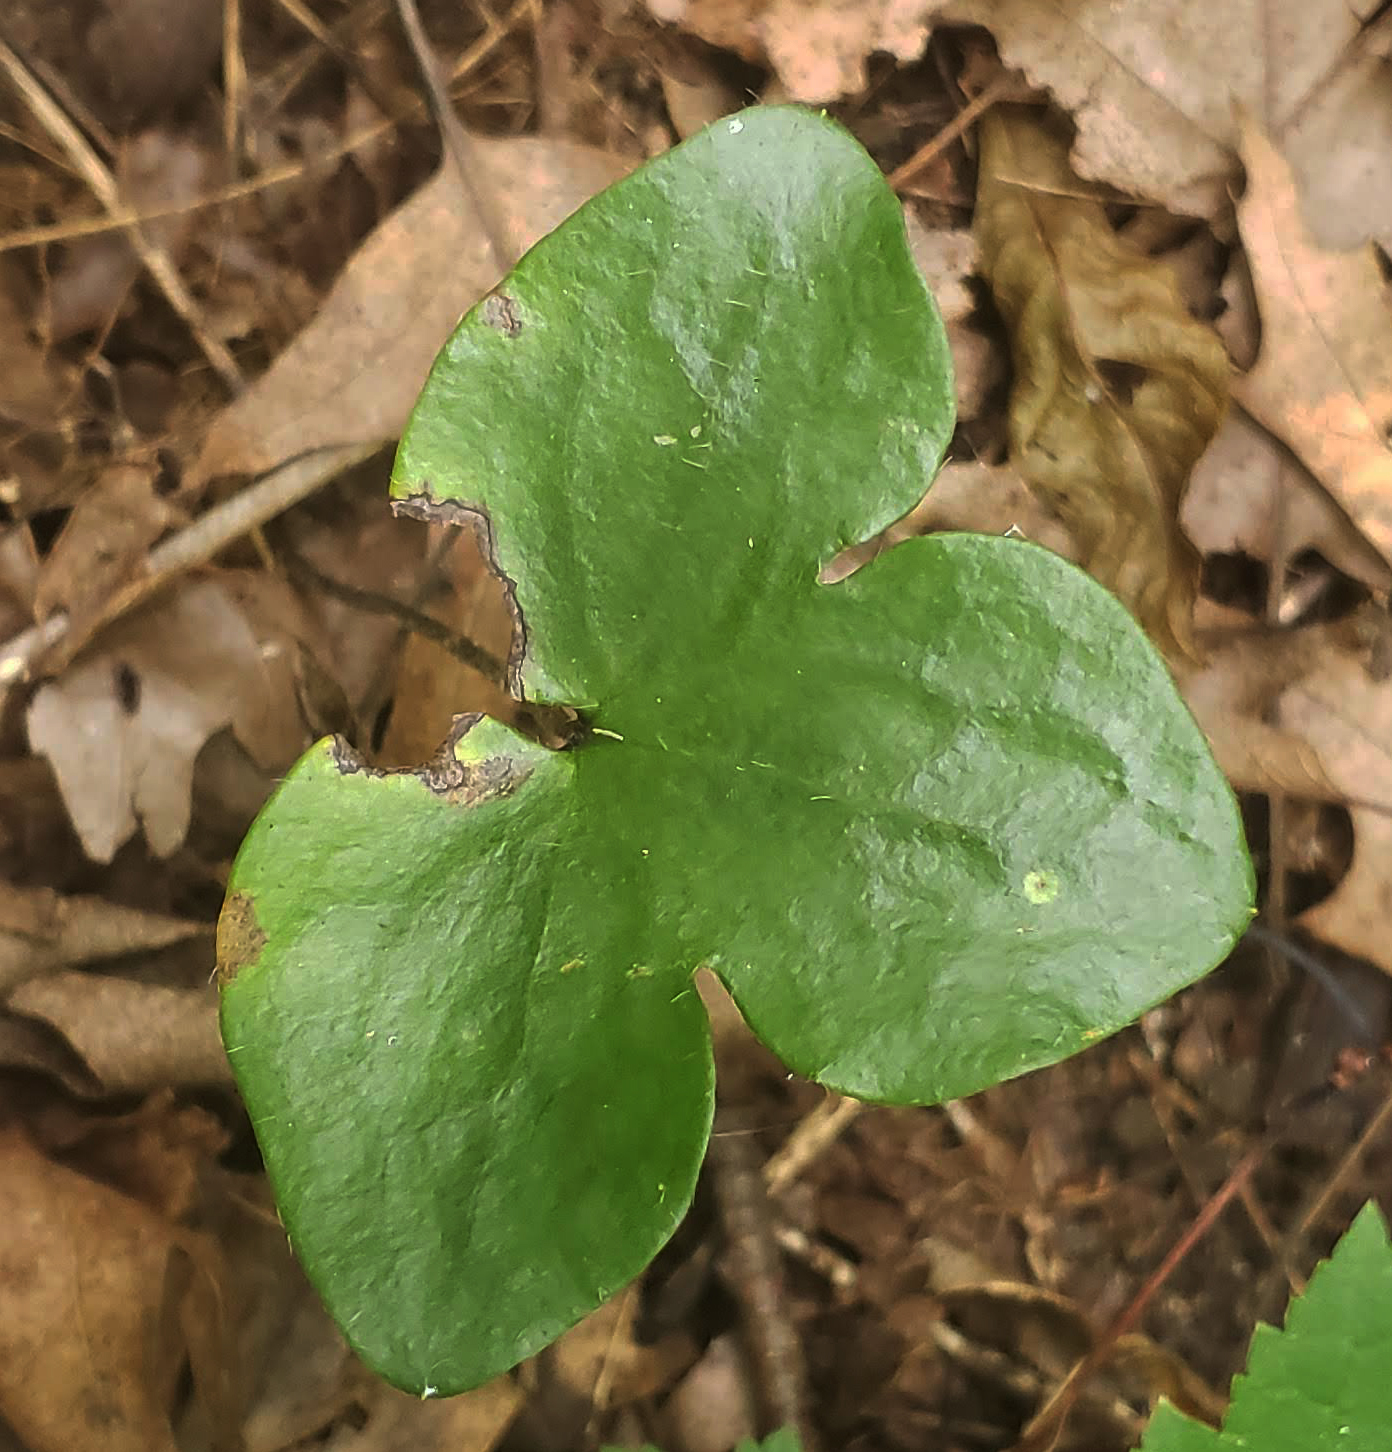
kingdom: Plantae
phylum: Tracheophyta
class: Magnoliopsida
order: Ranunculales
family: Ranunculaceae
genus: Hepatica
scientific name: Hepatica americana
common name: American hepatica
